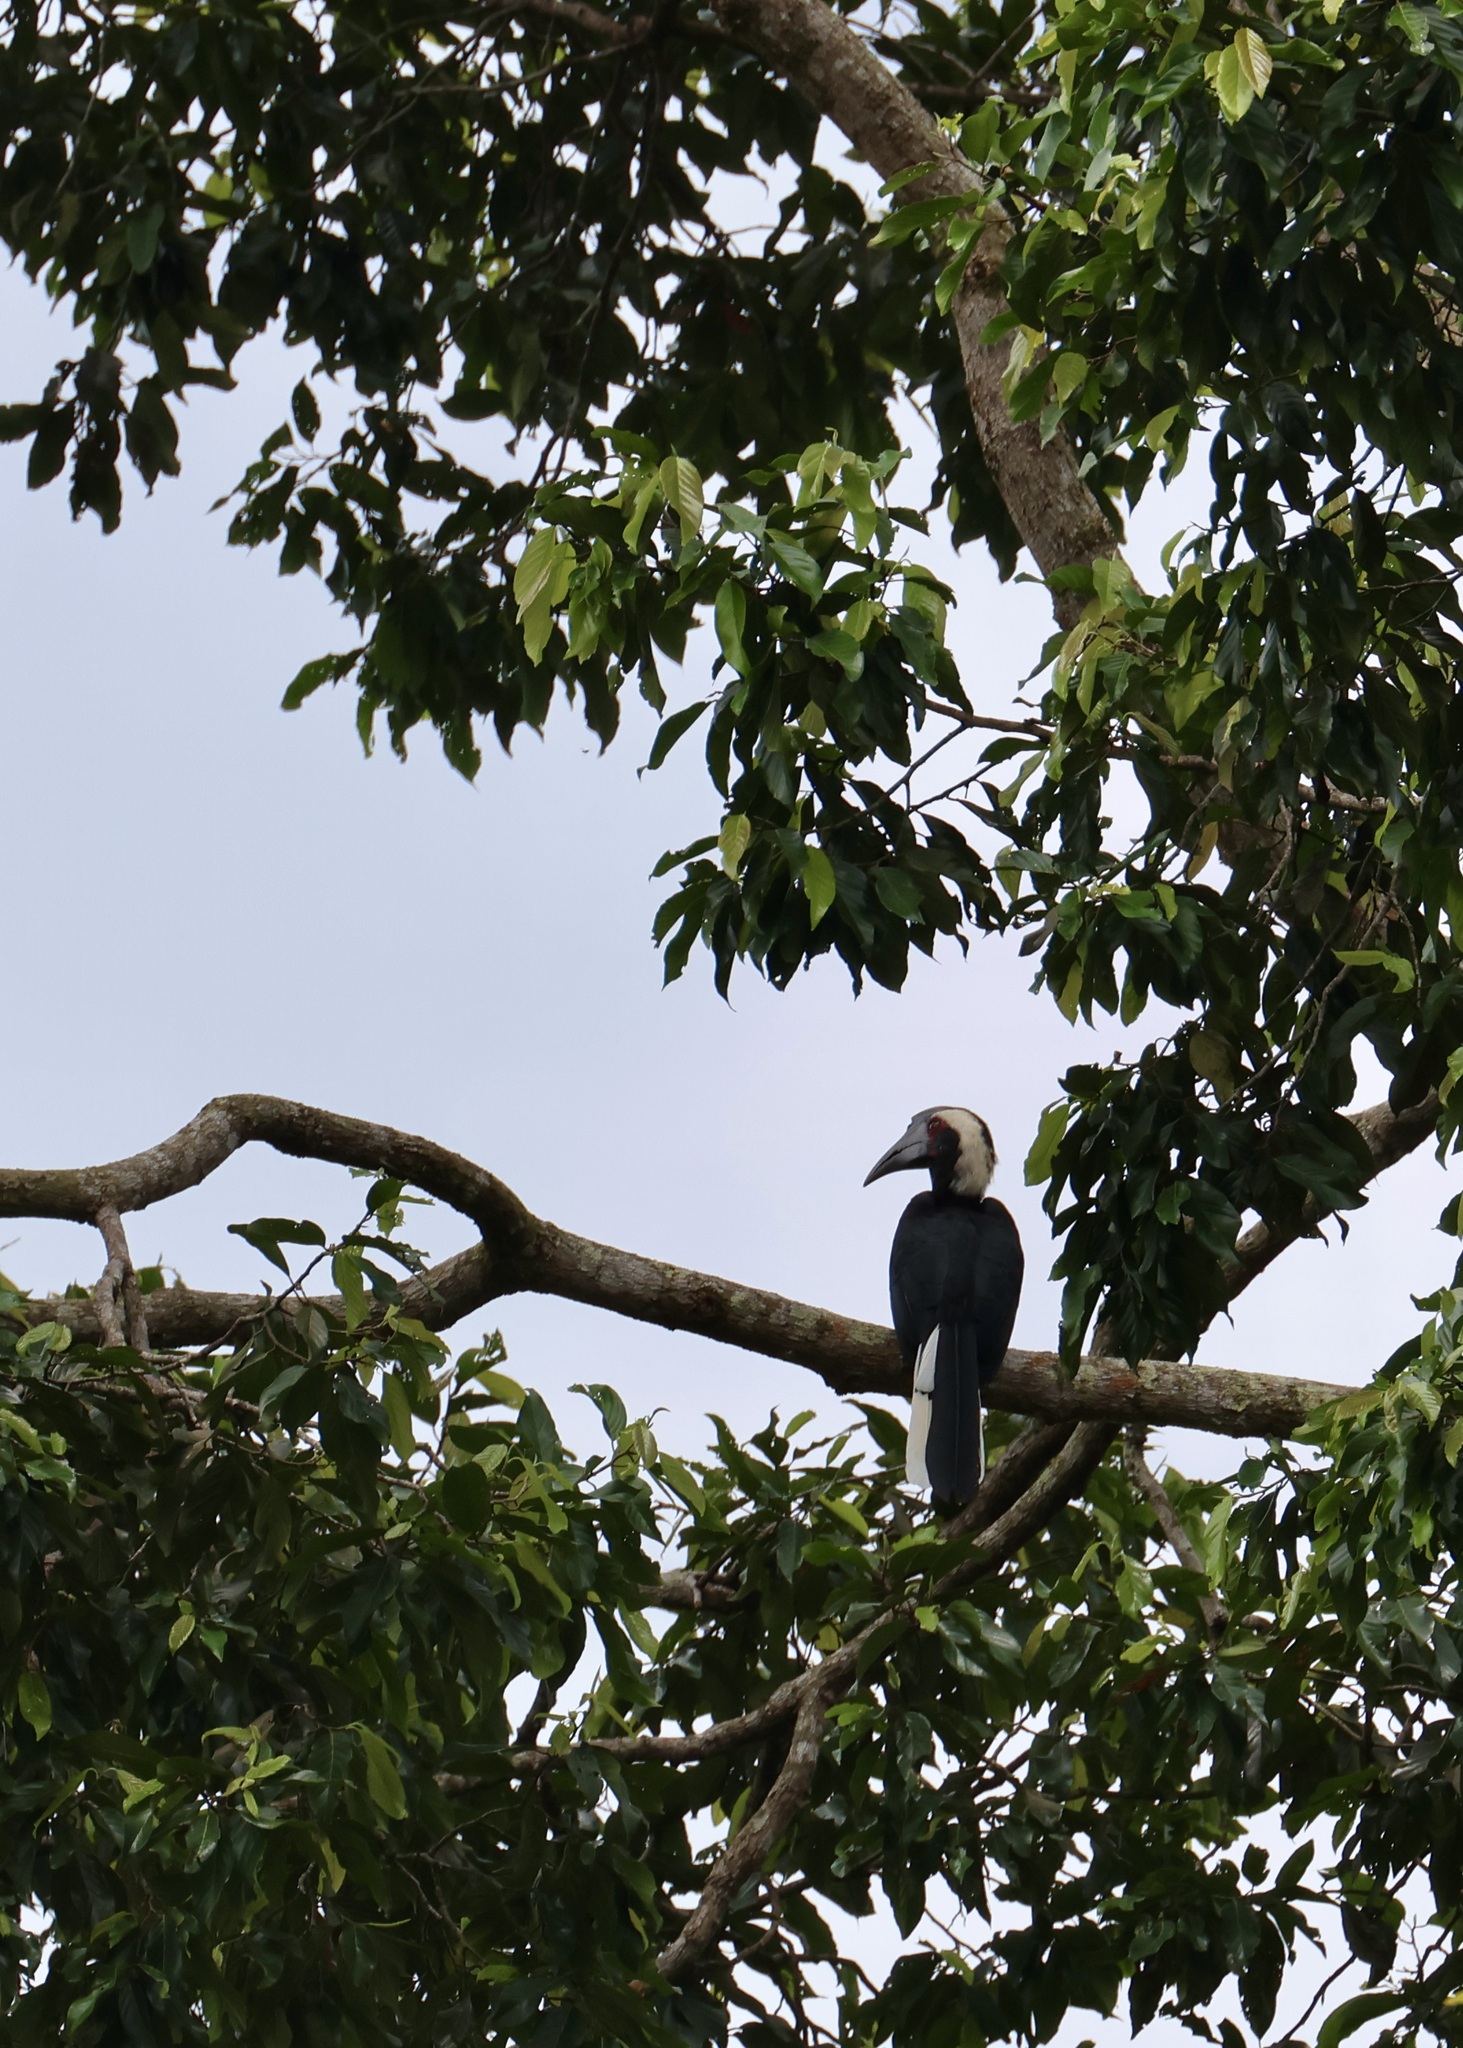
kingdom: Animalia
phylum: Chordata
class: Aves
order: Bucerotiformes
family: Bucerotidae
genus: Anthracoceros
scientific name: Anthracoceros malayanus
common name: Black hornbill
